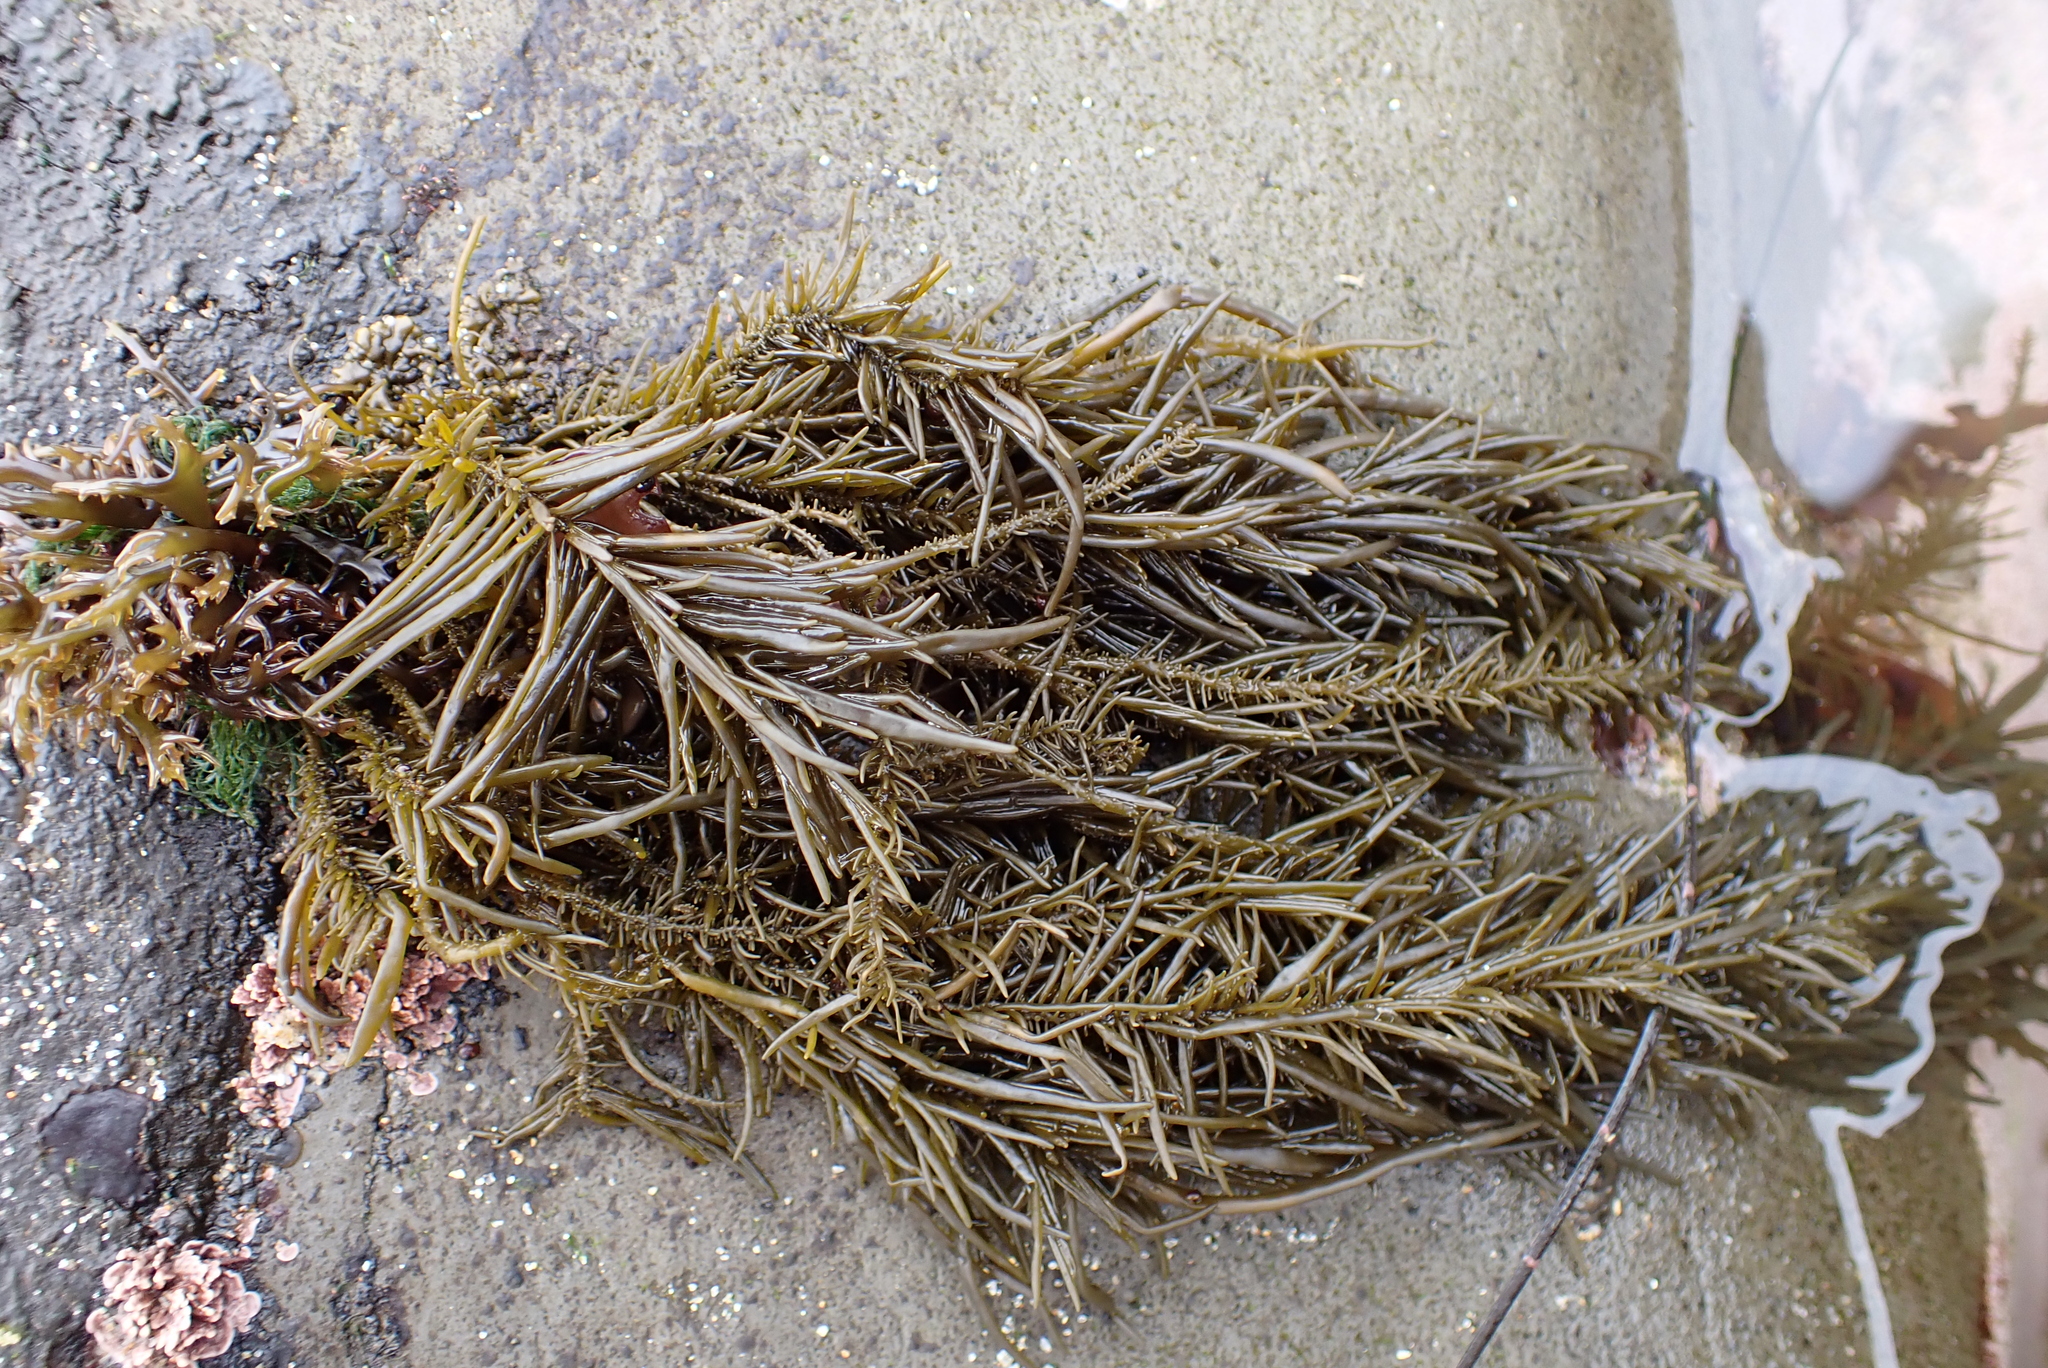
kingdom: Chromista
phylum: Ochrophyta
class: Phaeophyceae
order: Scytosiphonales
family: Scytosiphonaceae
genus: Analipus
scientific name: Analipus japonicus
